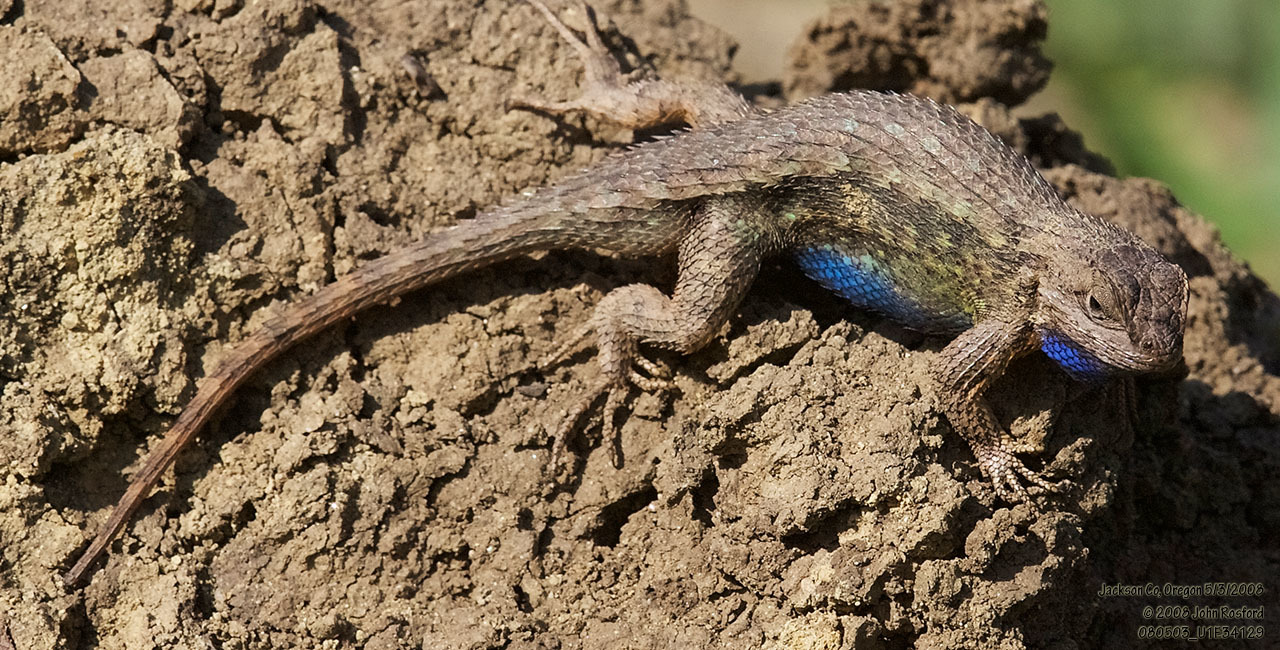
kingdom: Animalia
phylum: Chordata
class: Squamata
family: Phrynosomatidae
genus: Sceloporus
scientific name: Sceloporus occidentalis
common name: Western fence lizard
